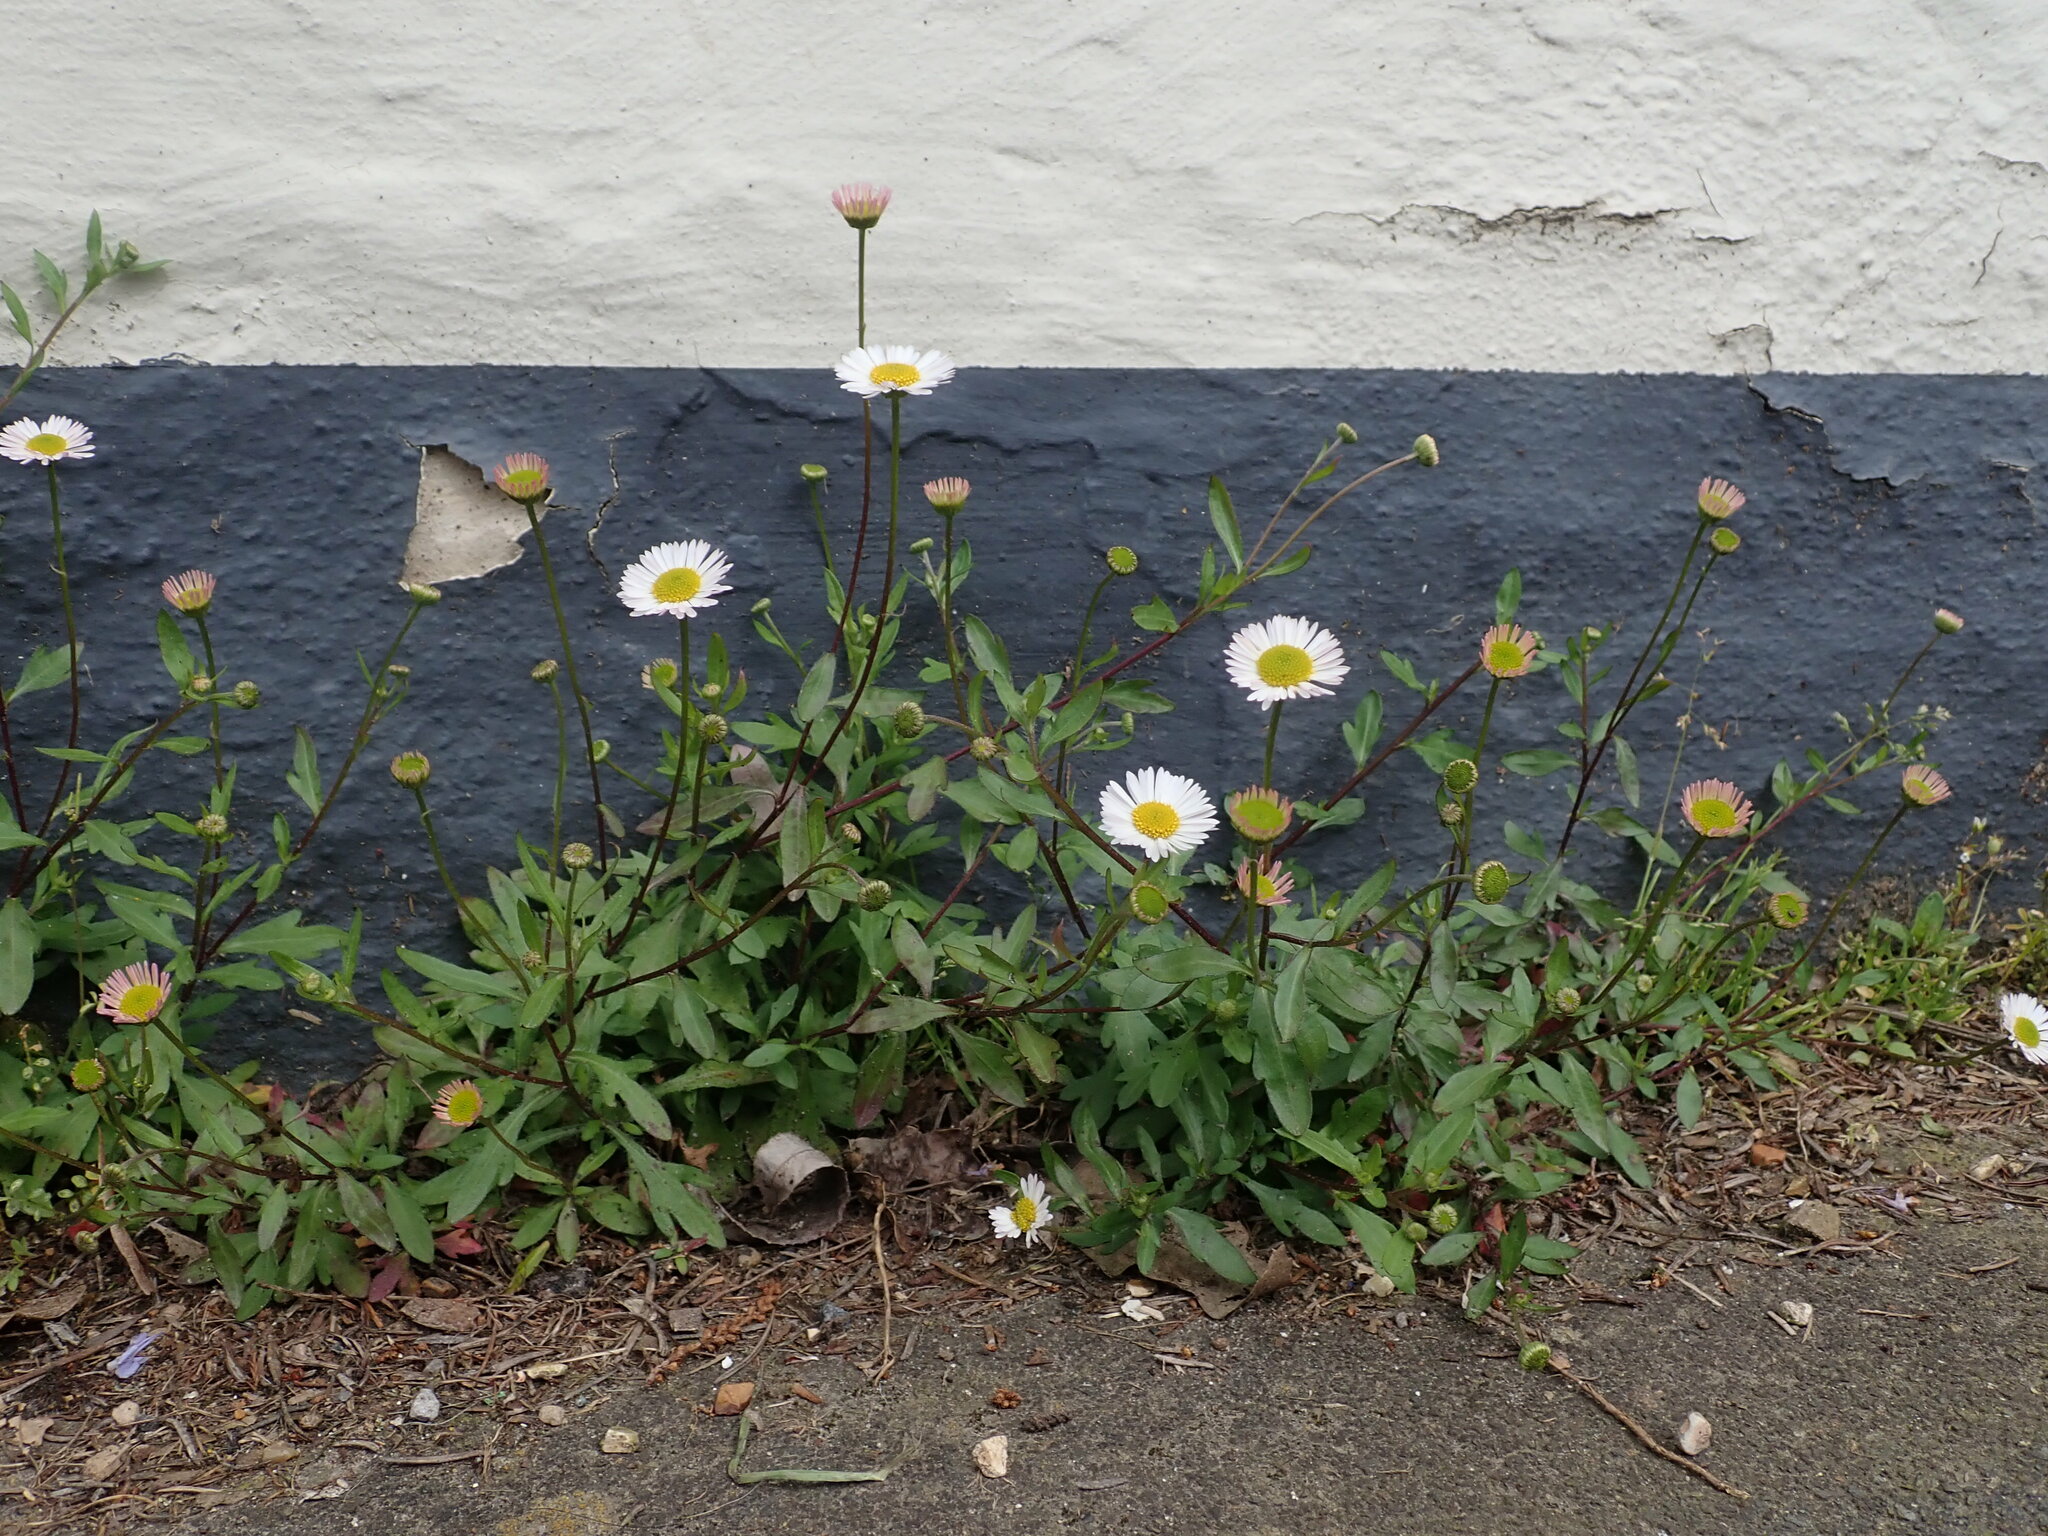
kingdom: Plantae
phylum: Tracheophyta
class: Magnoliopsida
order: Asterales
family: Asteraceae
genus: Erigeron
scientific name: Erigeron karvinskianus
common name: Mexican fleabane
